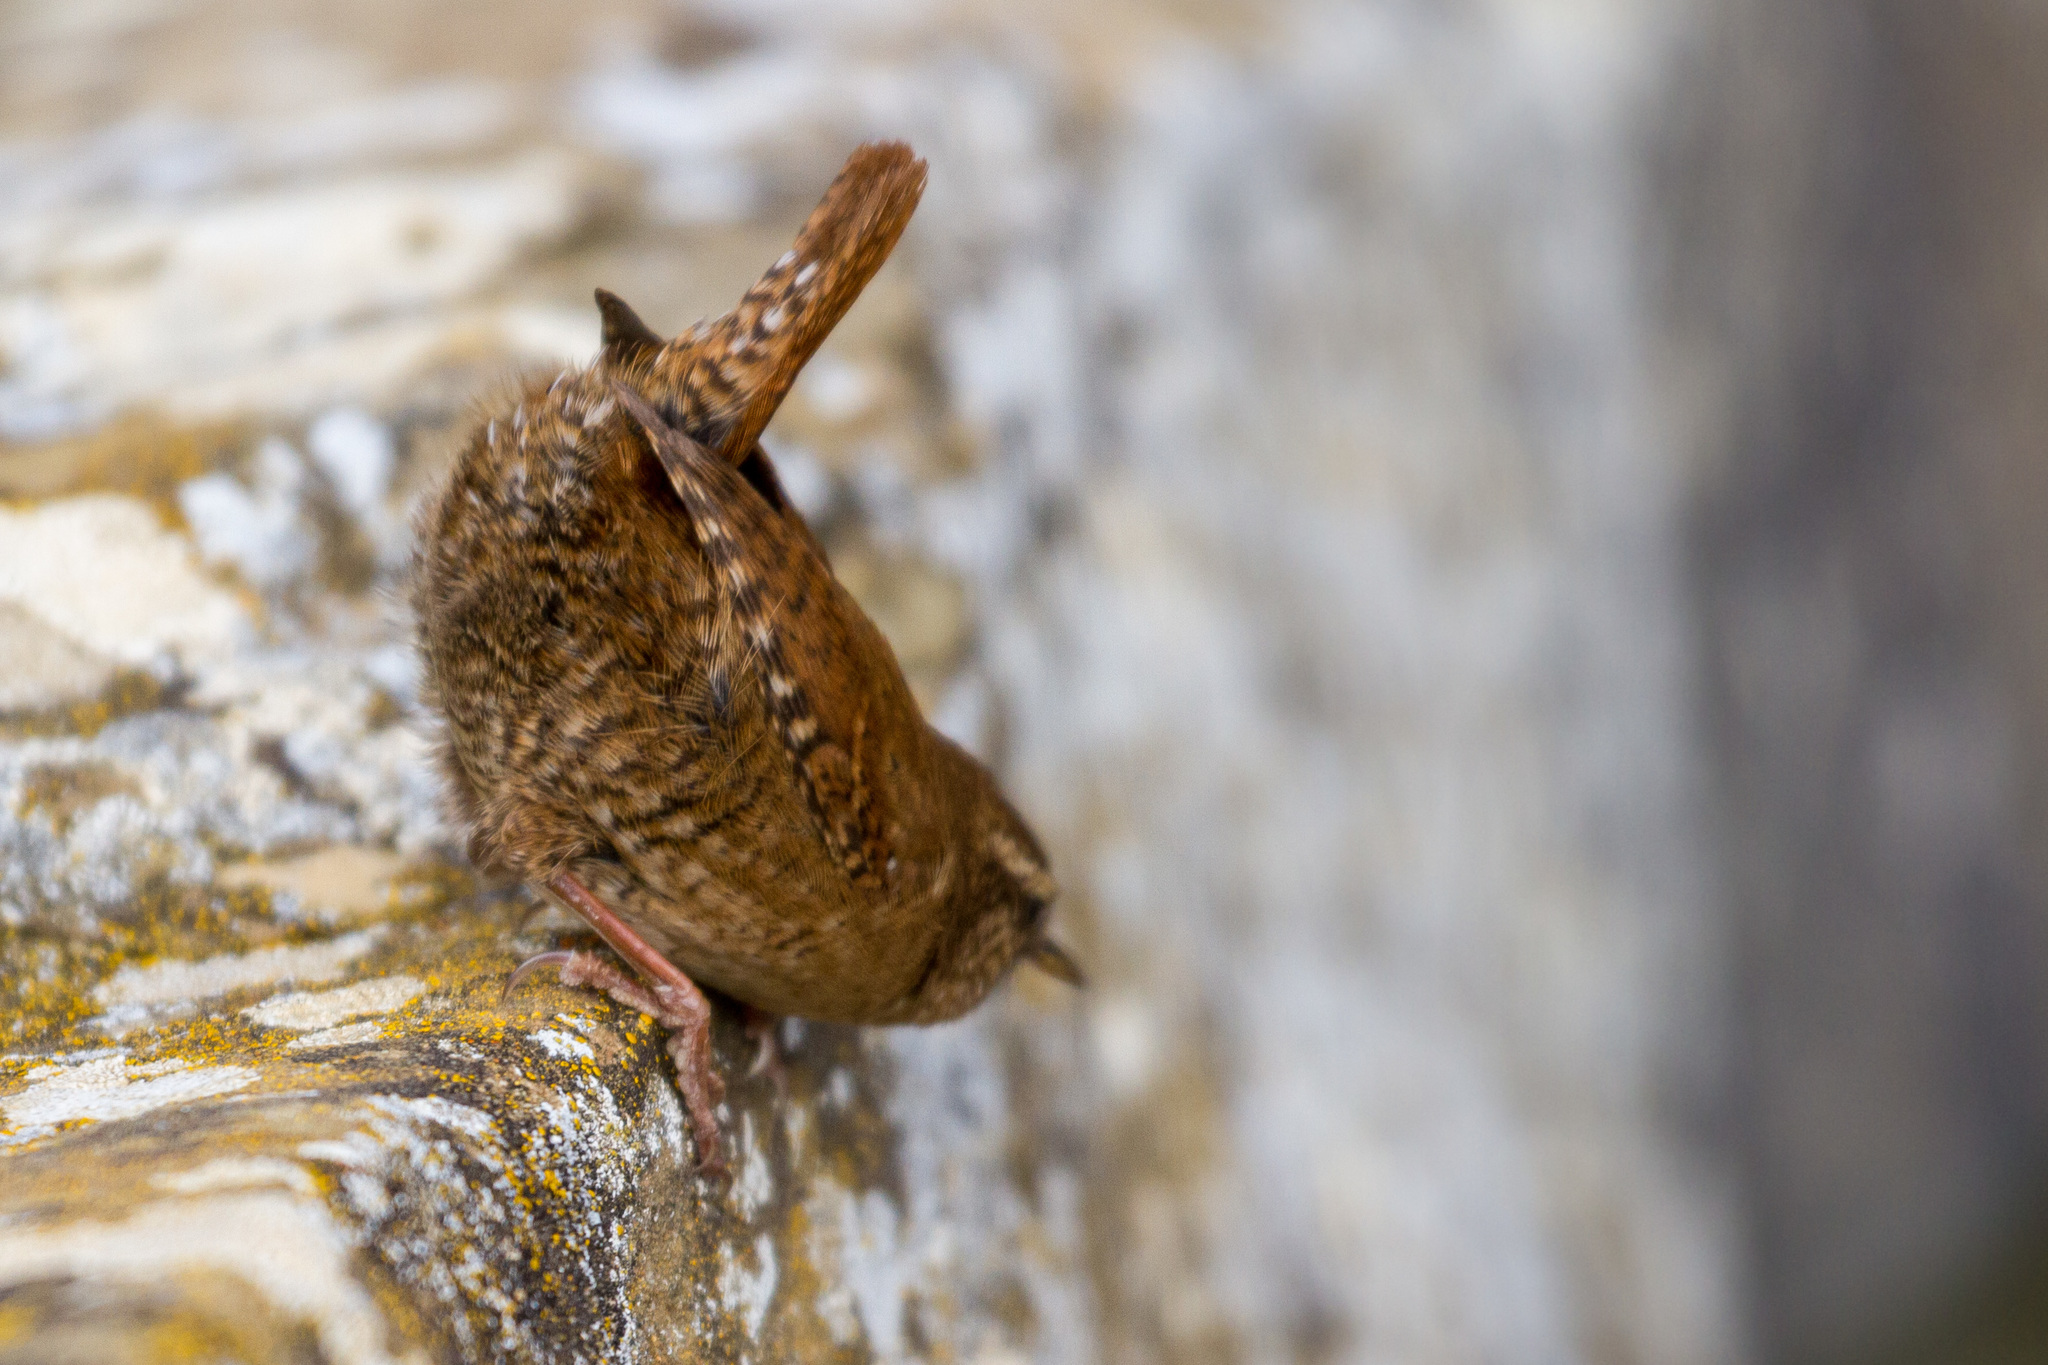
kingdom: Animalia
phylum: Chordata
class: Aves
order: Passeriformes
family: Troglodytidae
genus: Troglodytes
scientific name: Troglodytes troglodytes
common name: Eurasian wren
